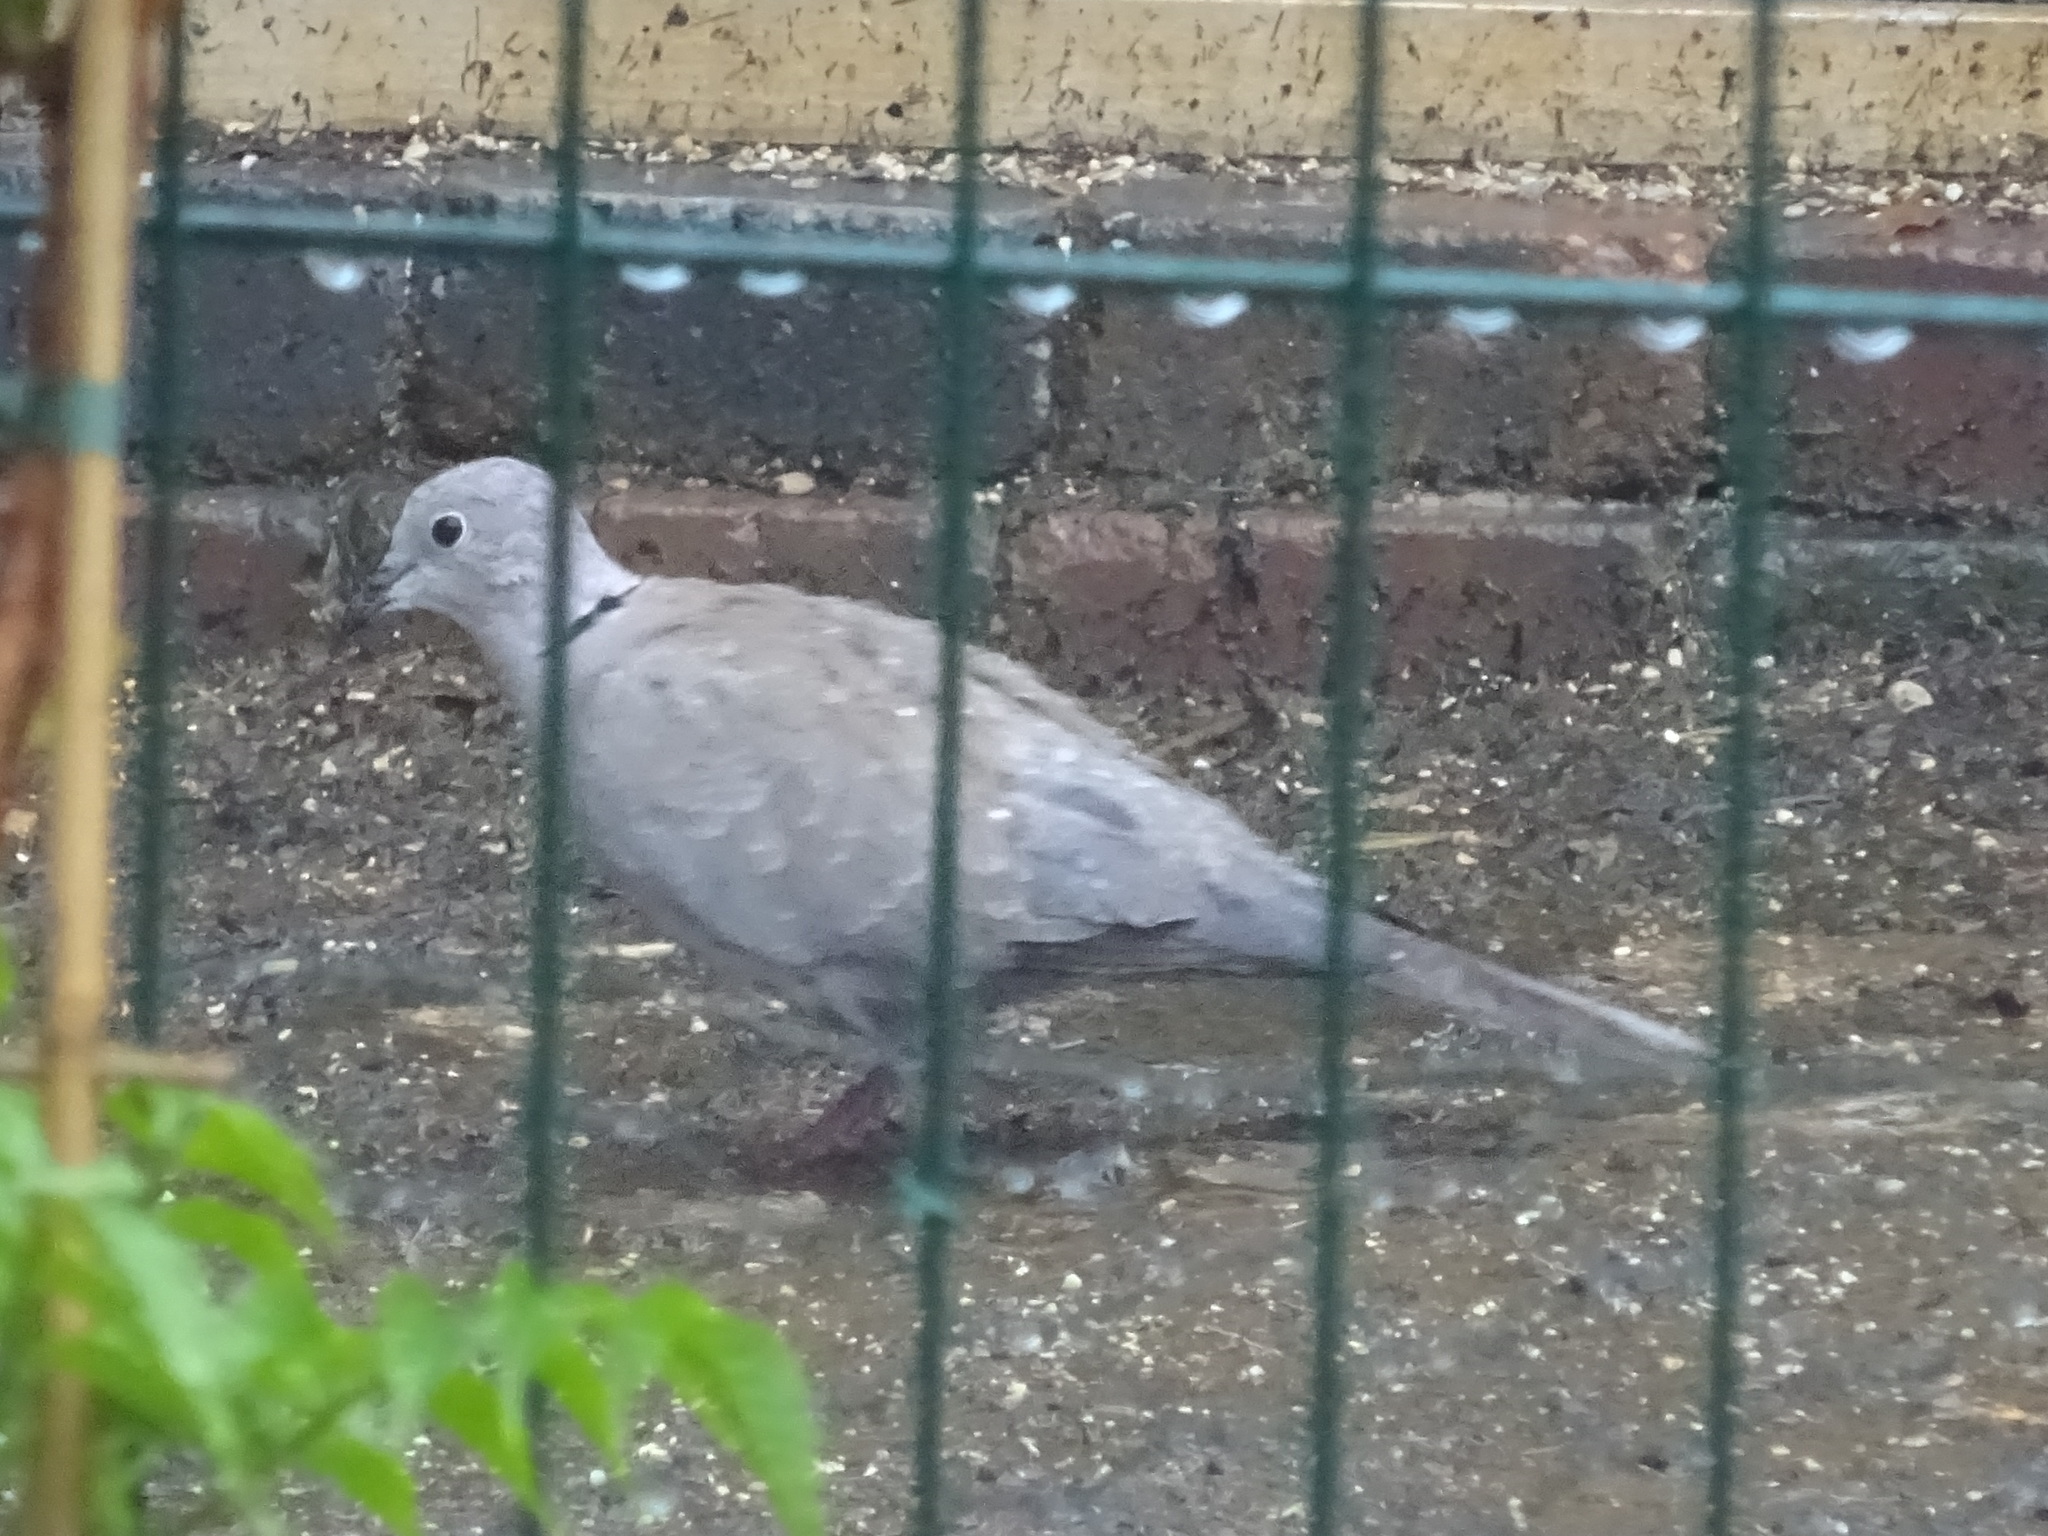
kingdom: Animalia
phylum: Chordata
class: Aves
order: Columbiformes
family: Columbidae
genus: Streptopelia
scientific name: Streptopelia decaocto
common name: Eurasian collared dove
